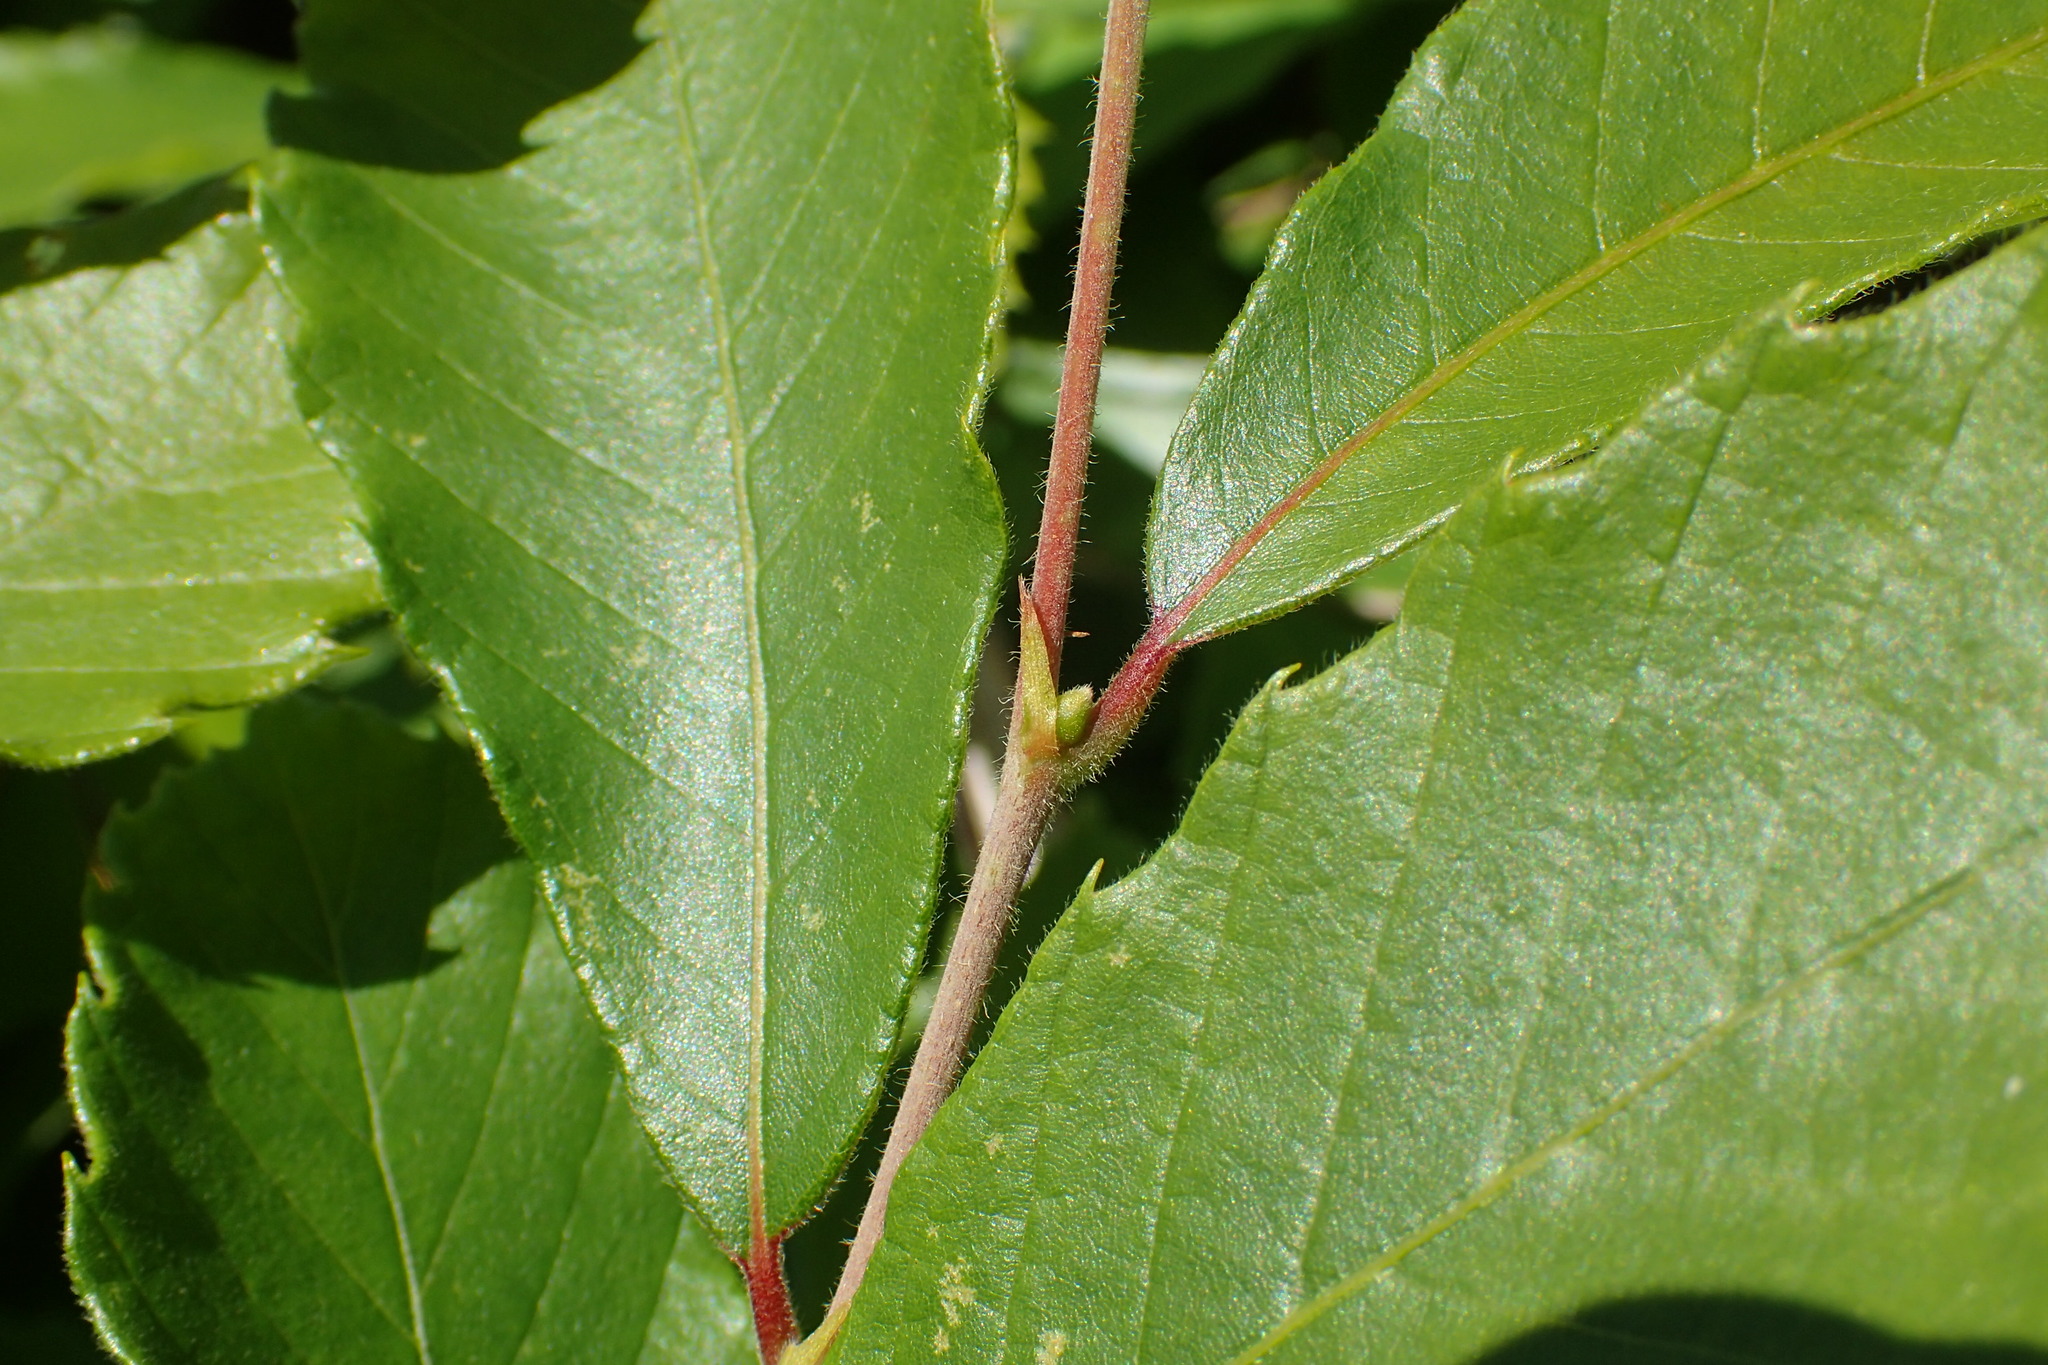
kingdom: Plantae
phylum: Tracheophyta
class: Magnoliopsida
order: Fagales
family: Fagaceae
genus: Castanea
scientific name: Castanea pumila
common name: Chinkapin
